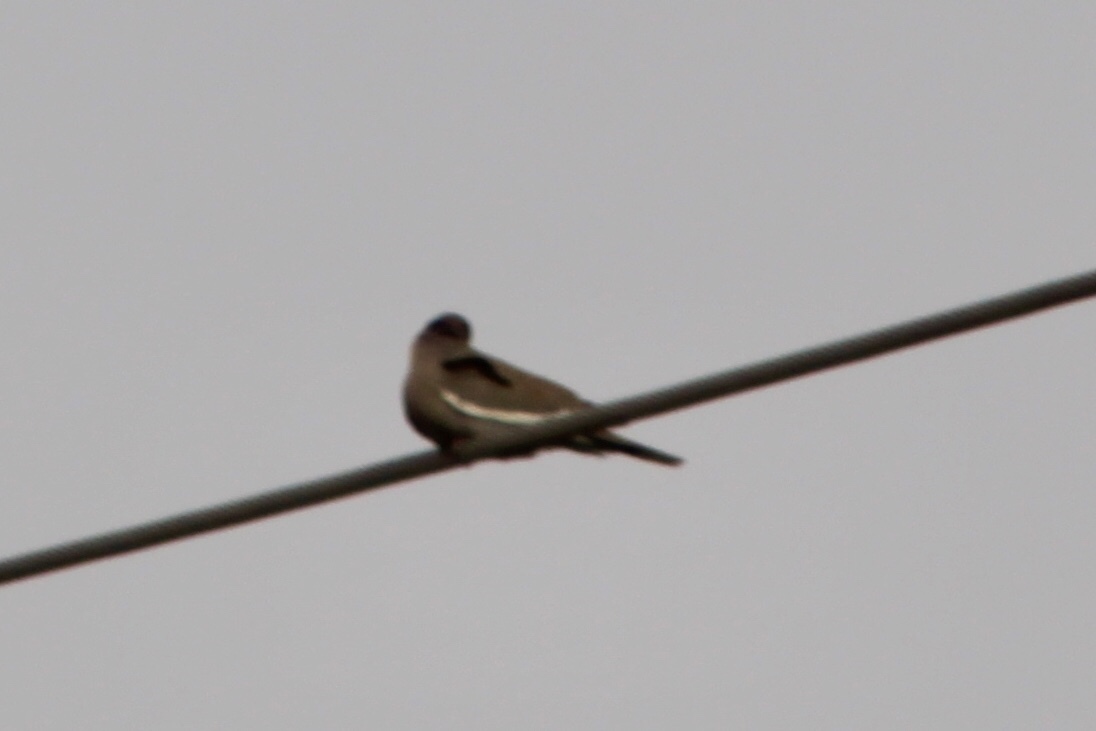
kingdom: Animalia
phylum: Chordata
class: Aves
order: Columbiformes
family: Columbidae
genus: Zenaida
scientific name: Zenaida asiatica
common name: White-winged dove
